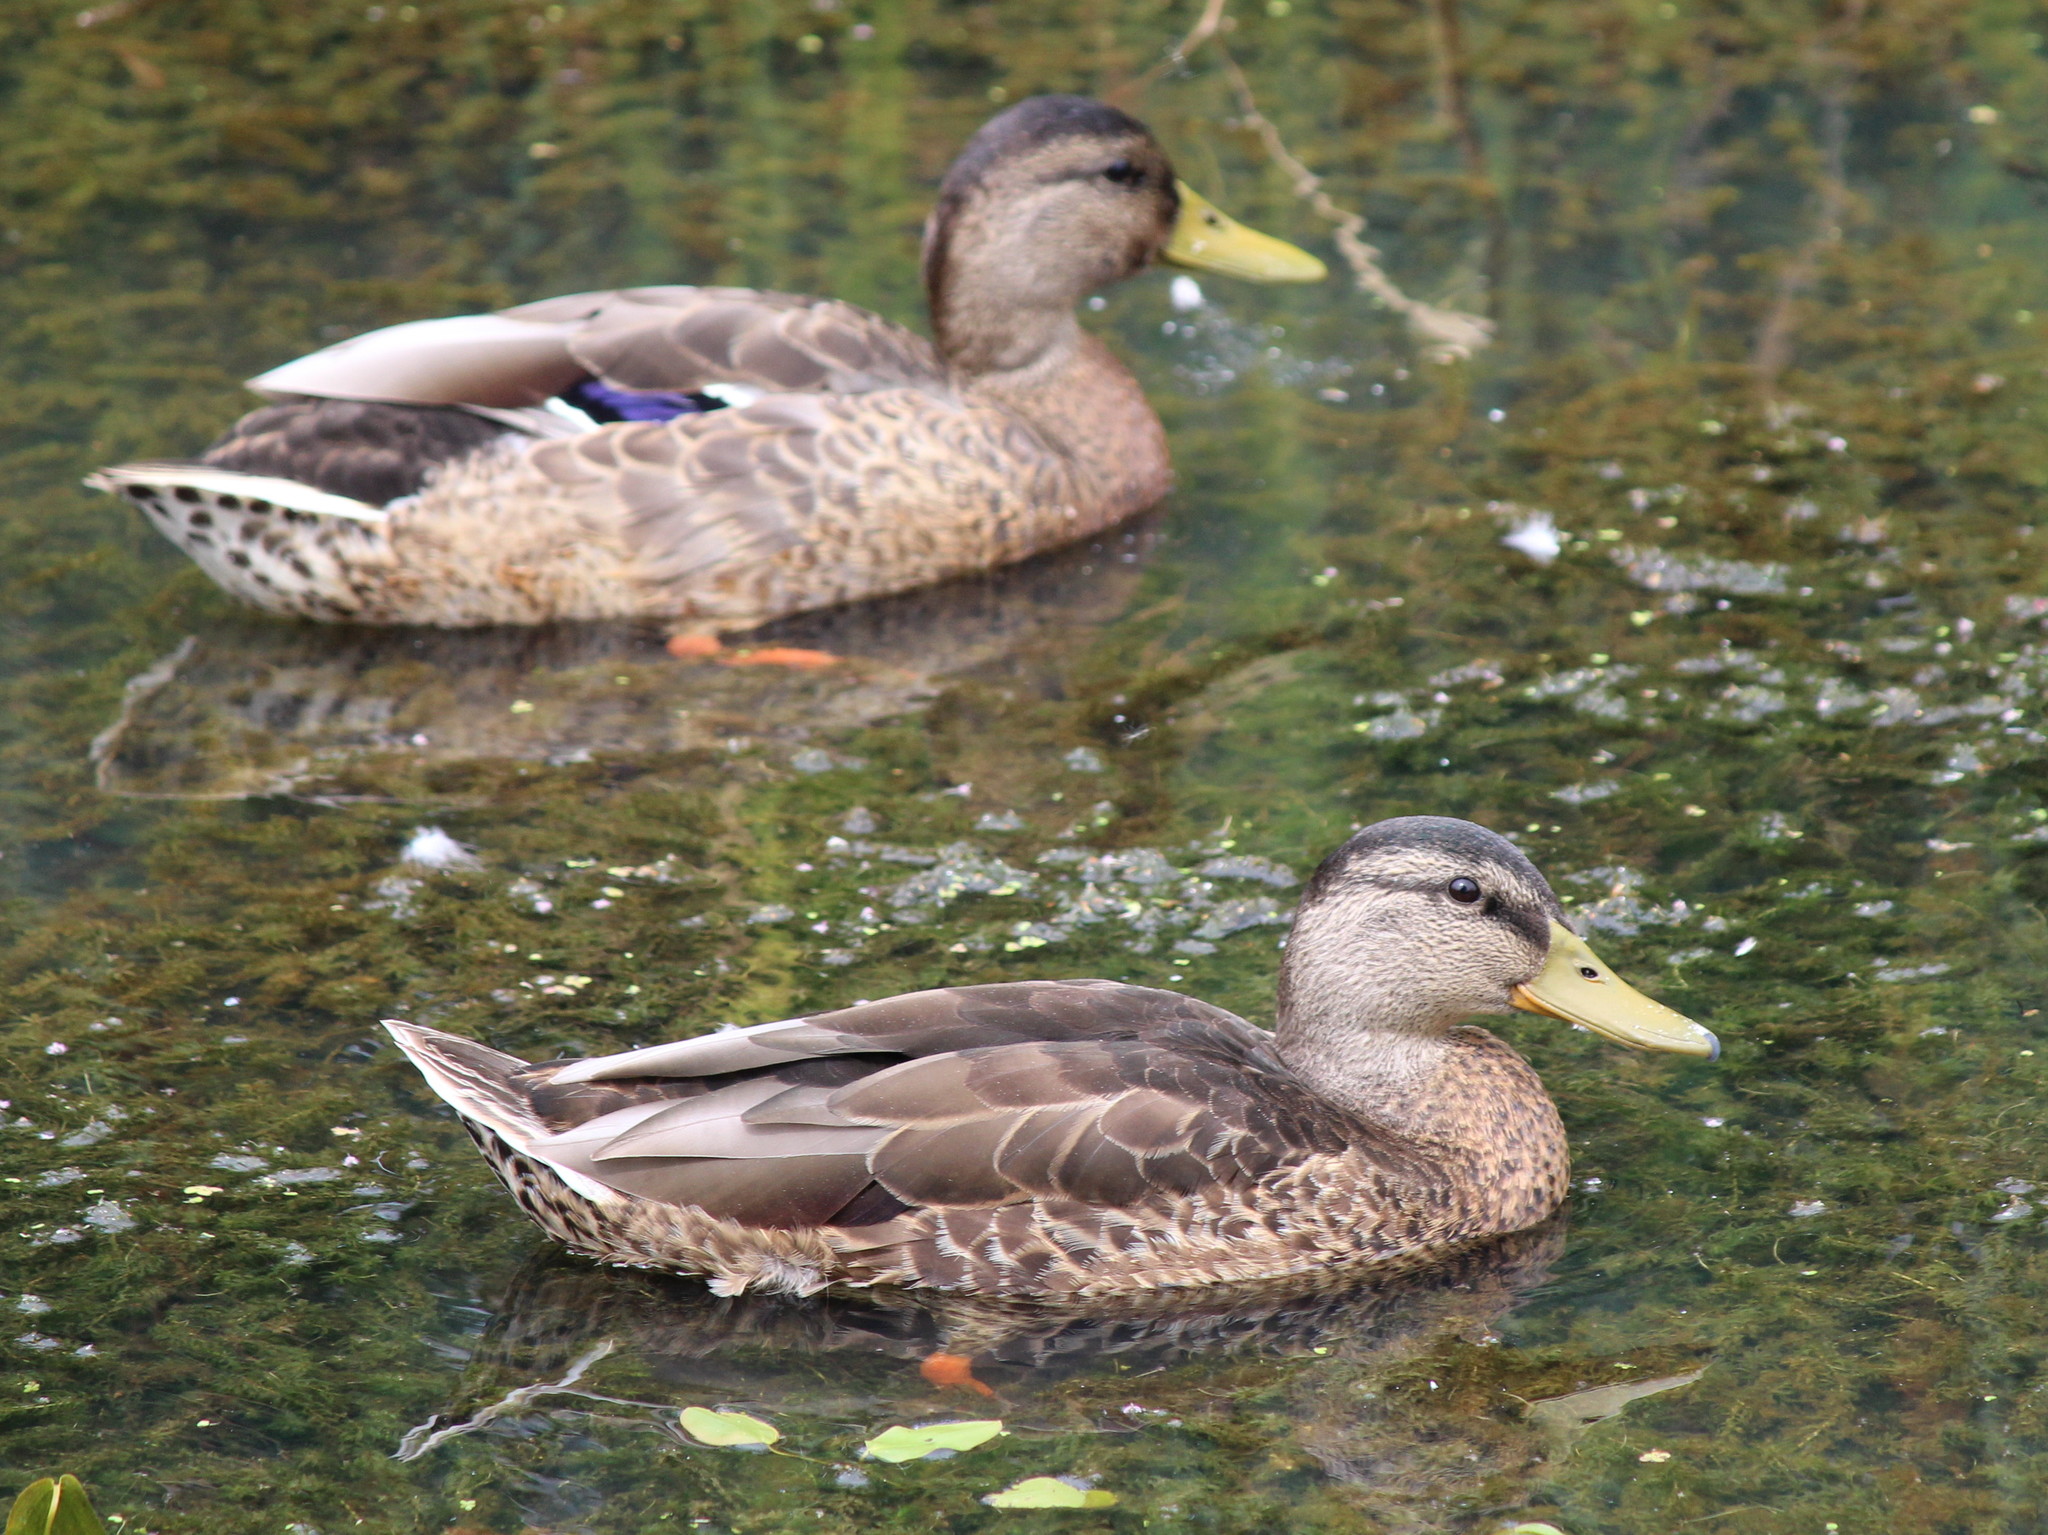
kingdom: Animalia
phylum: Chordata
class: Aves
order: Anseriformes
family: Anatidae
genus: Anas
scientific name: Anas platyrhynchos
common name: Mallard
